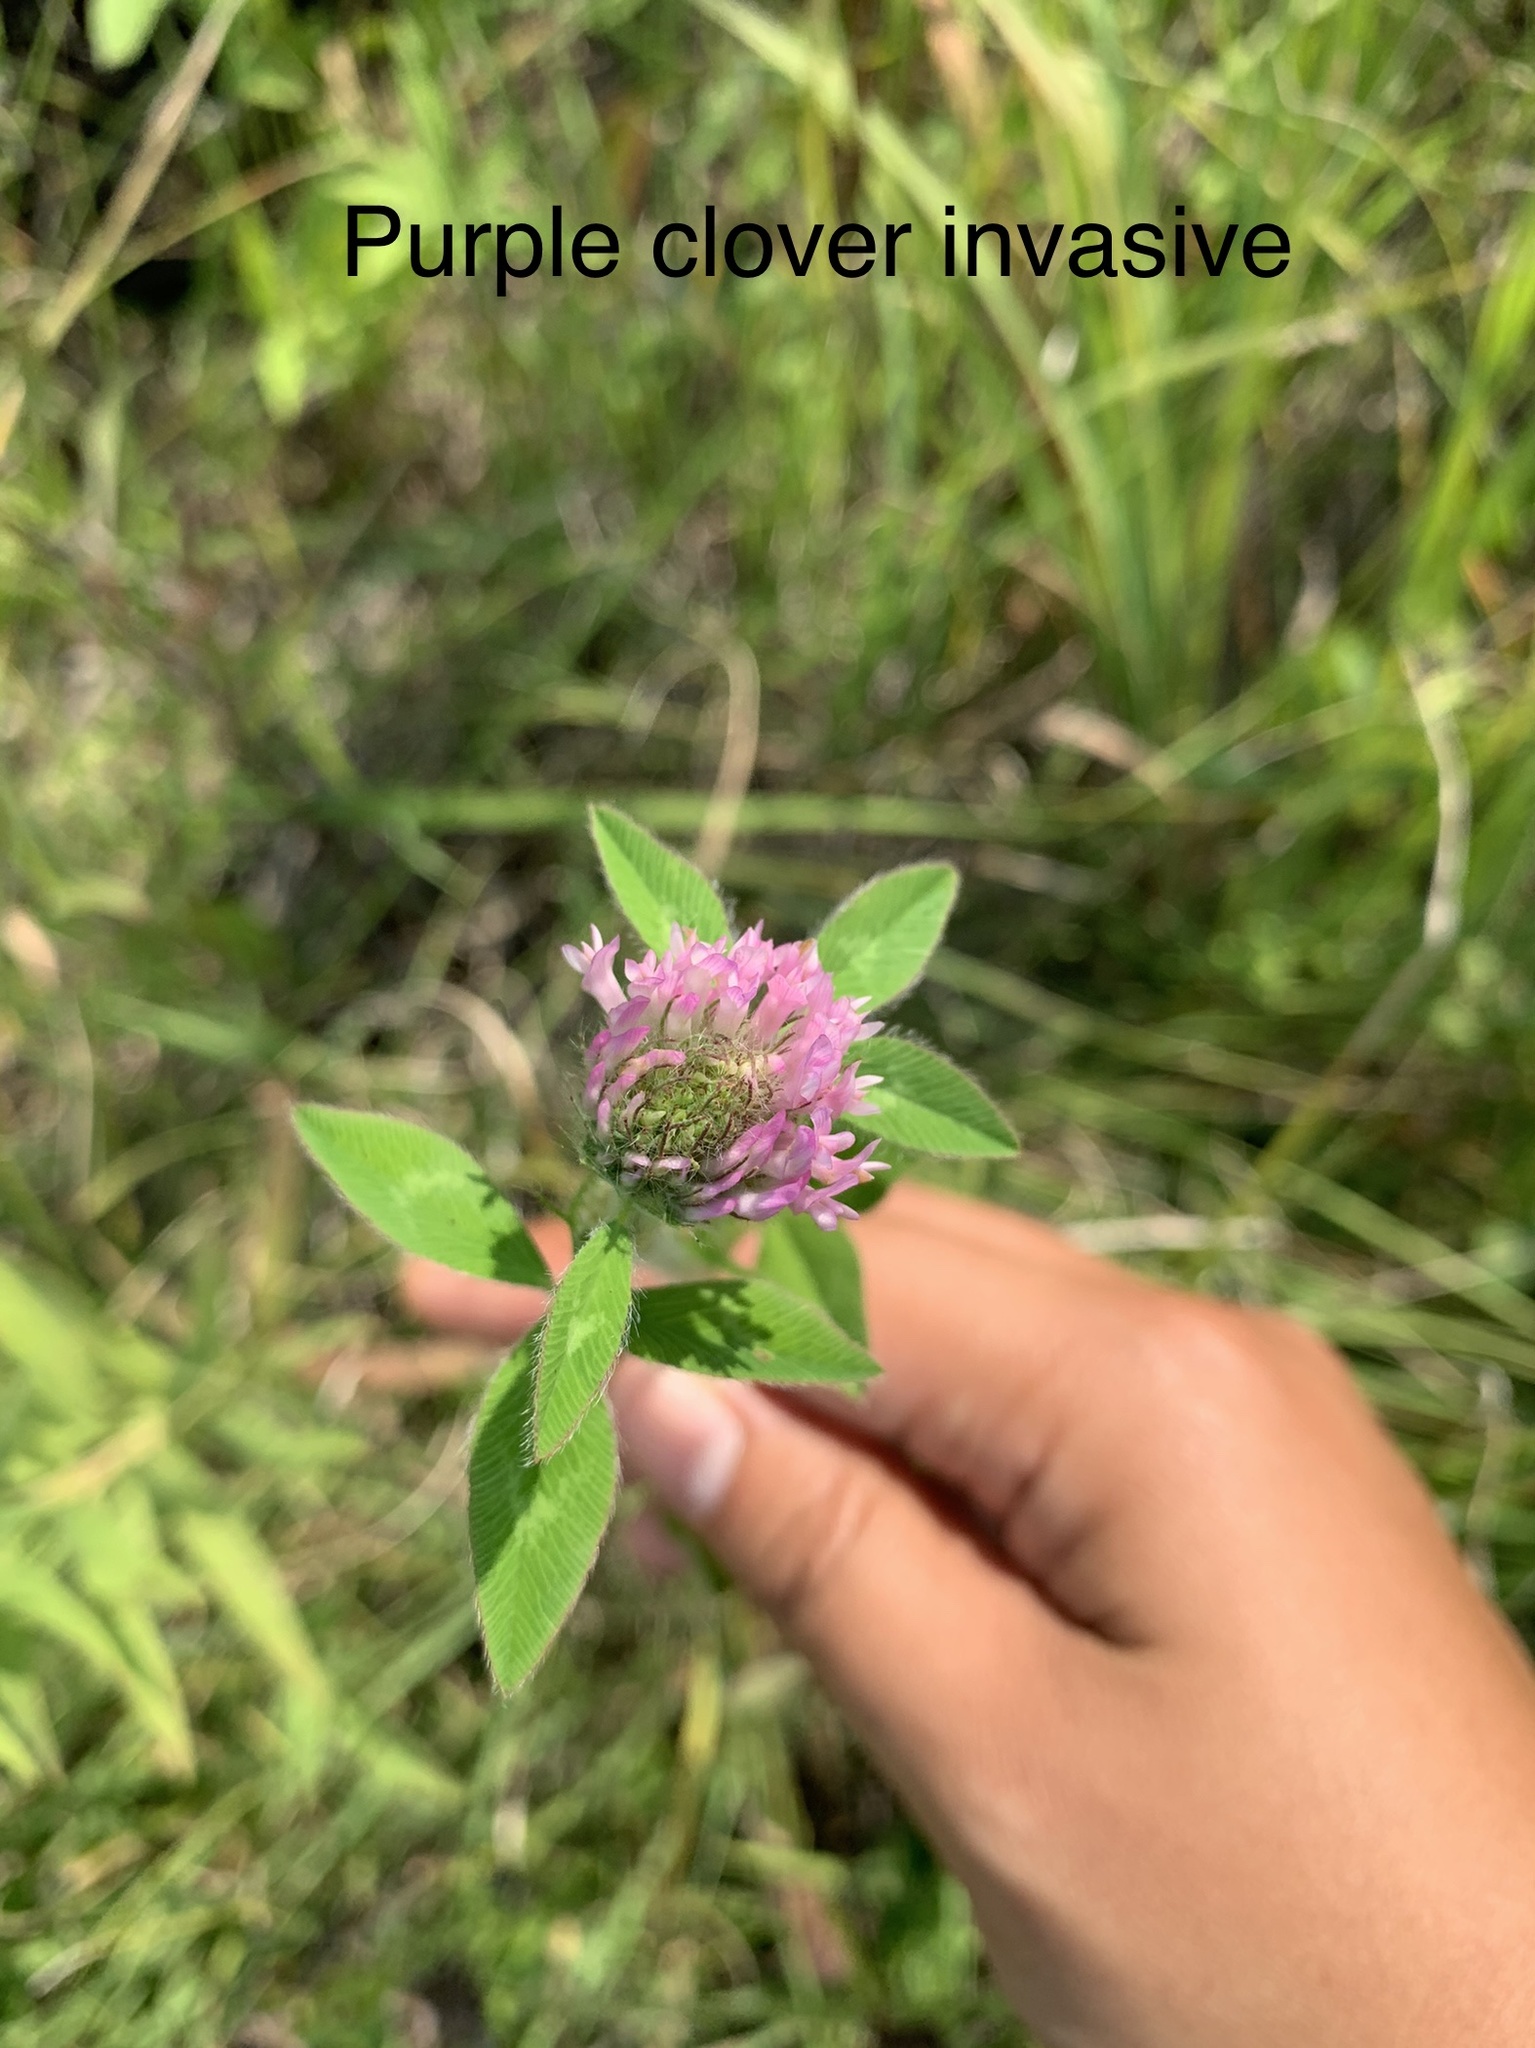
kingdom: Plantae
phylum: Tracheophyta
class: Magnoliopsida
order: Fabales
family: Fabaceae
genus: Trifolium
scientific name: Trifolium pratense
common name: Red clover
